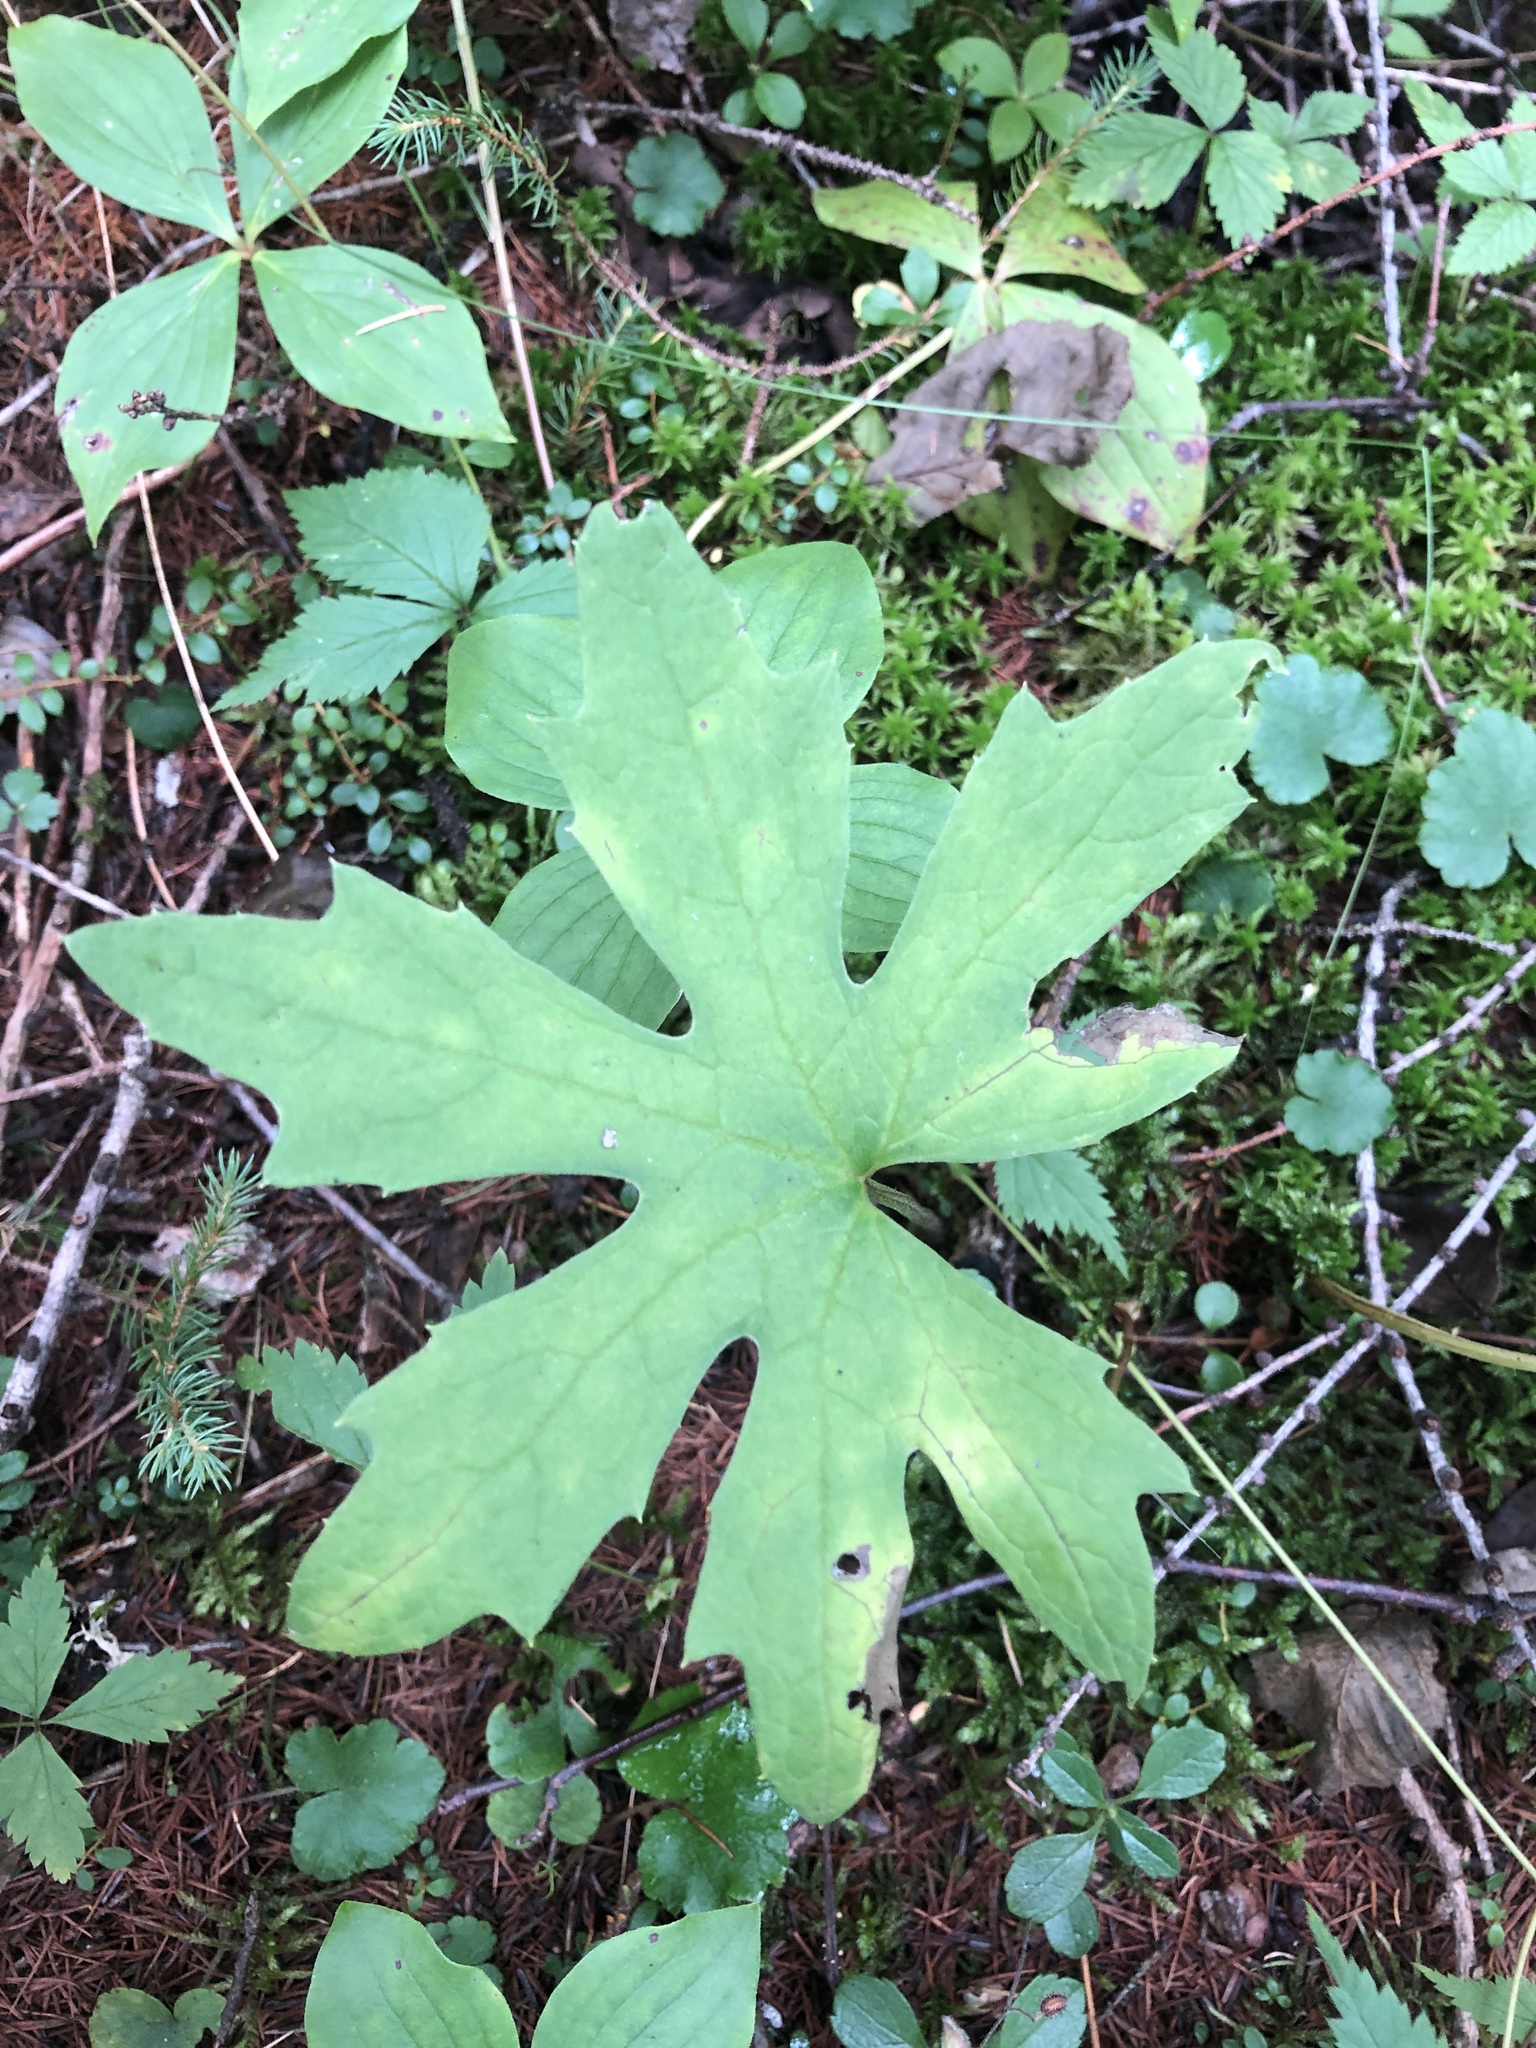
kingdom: Plantae
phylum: Tracheophyta
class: Magnoliopsida
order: Asterales
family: Asteraceae
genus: Petasites
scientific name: Petasites frigidus
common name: Arctic butterbur
